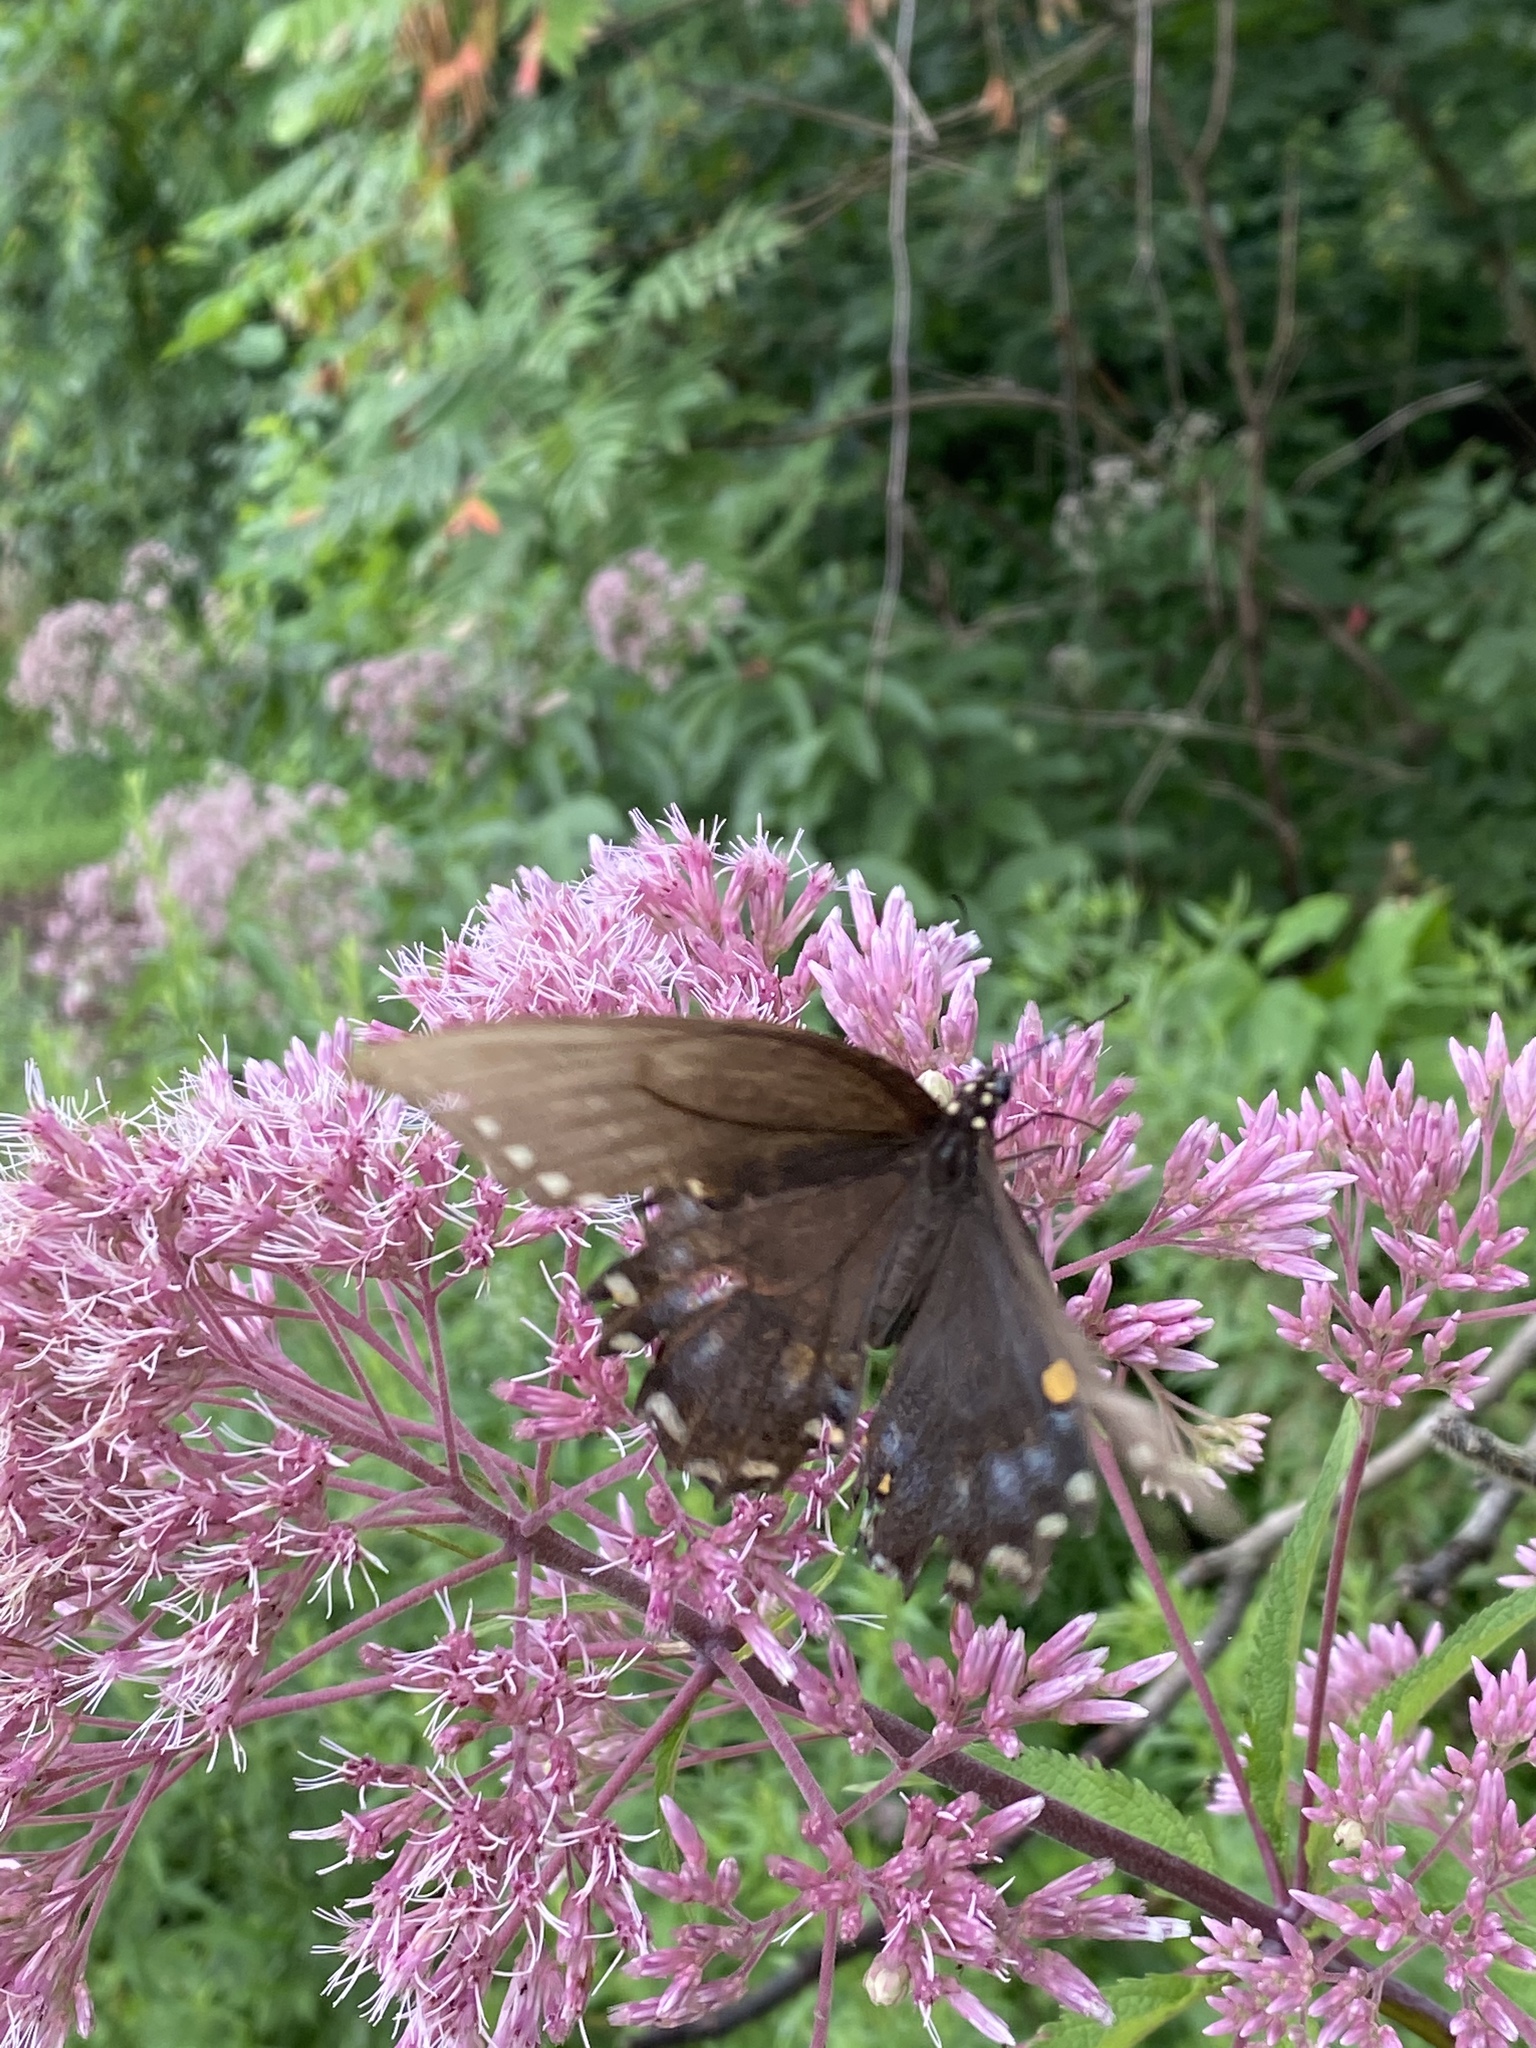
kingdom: Animalia
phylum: Arthropoda
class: Insecta
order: Lepidoptera
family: Papilionidae
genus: Papilio
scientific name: Papilio troilus
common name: Spicebush swallowtail
